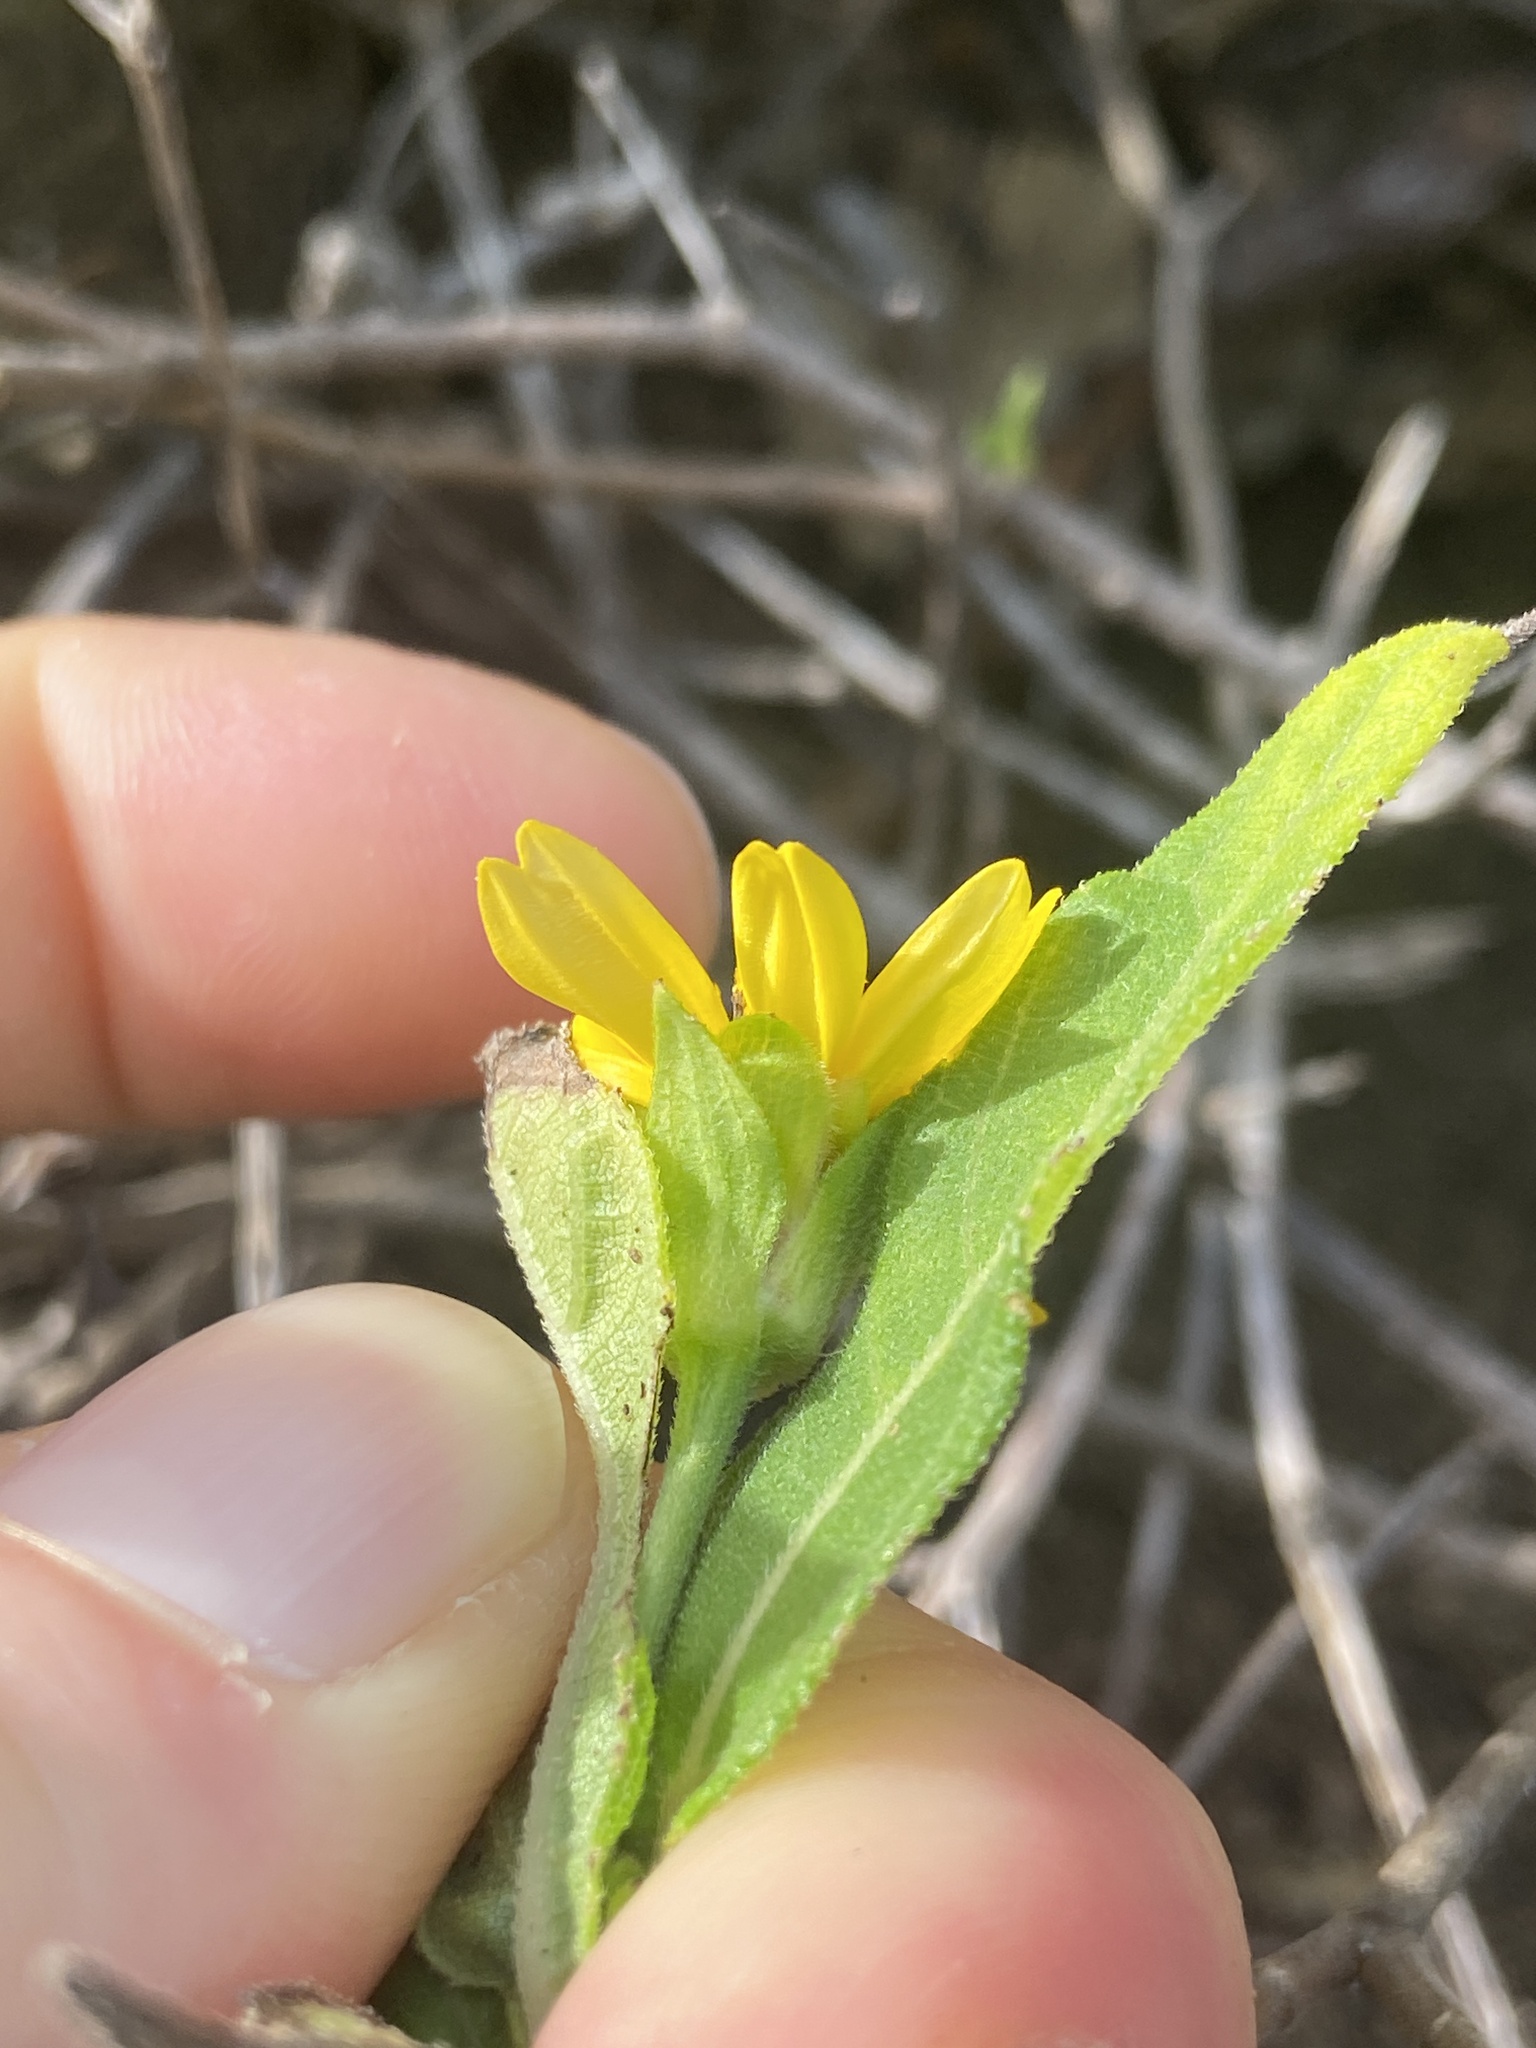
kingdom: Plantae
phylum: Tracheophyta
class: Magnoliopsida
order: Asterales
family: Asteraceae
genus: Wedelia
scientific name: Wedelia calycina
